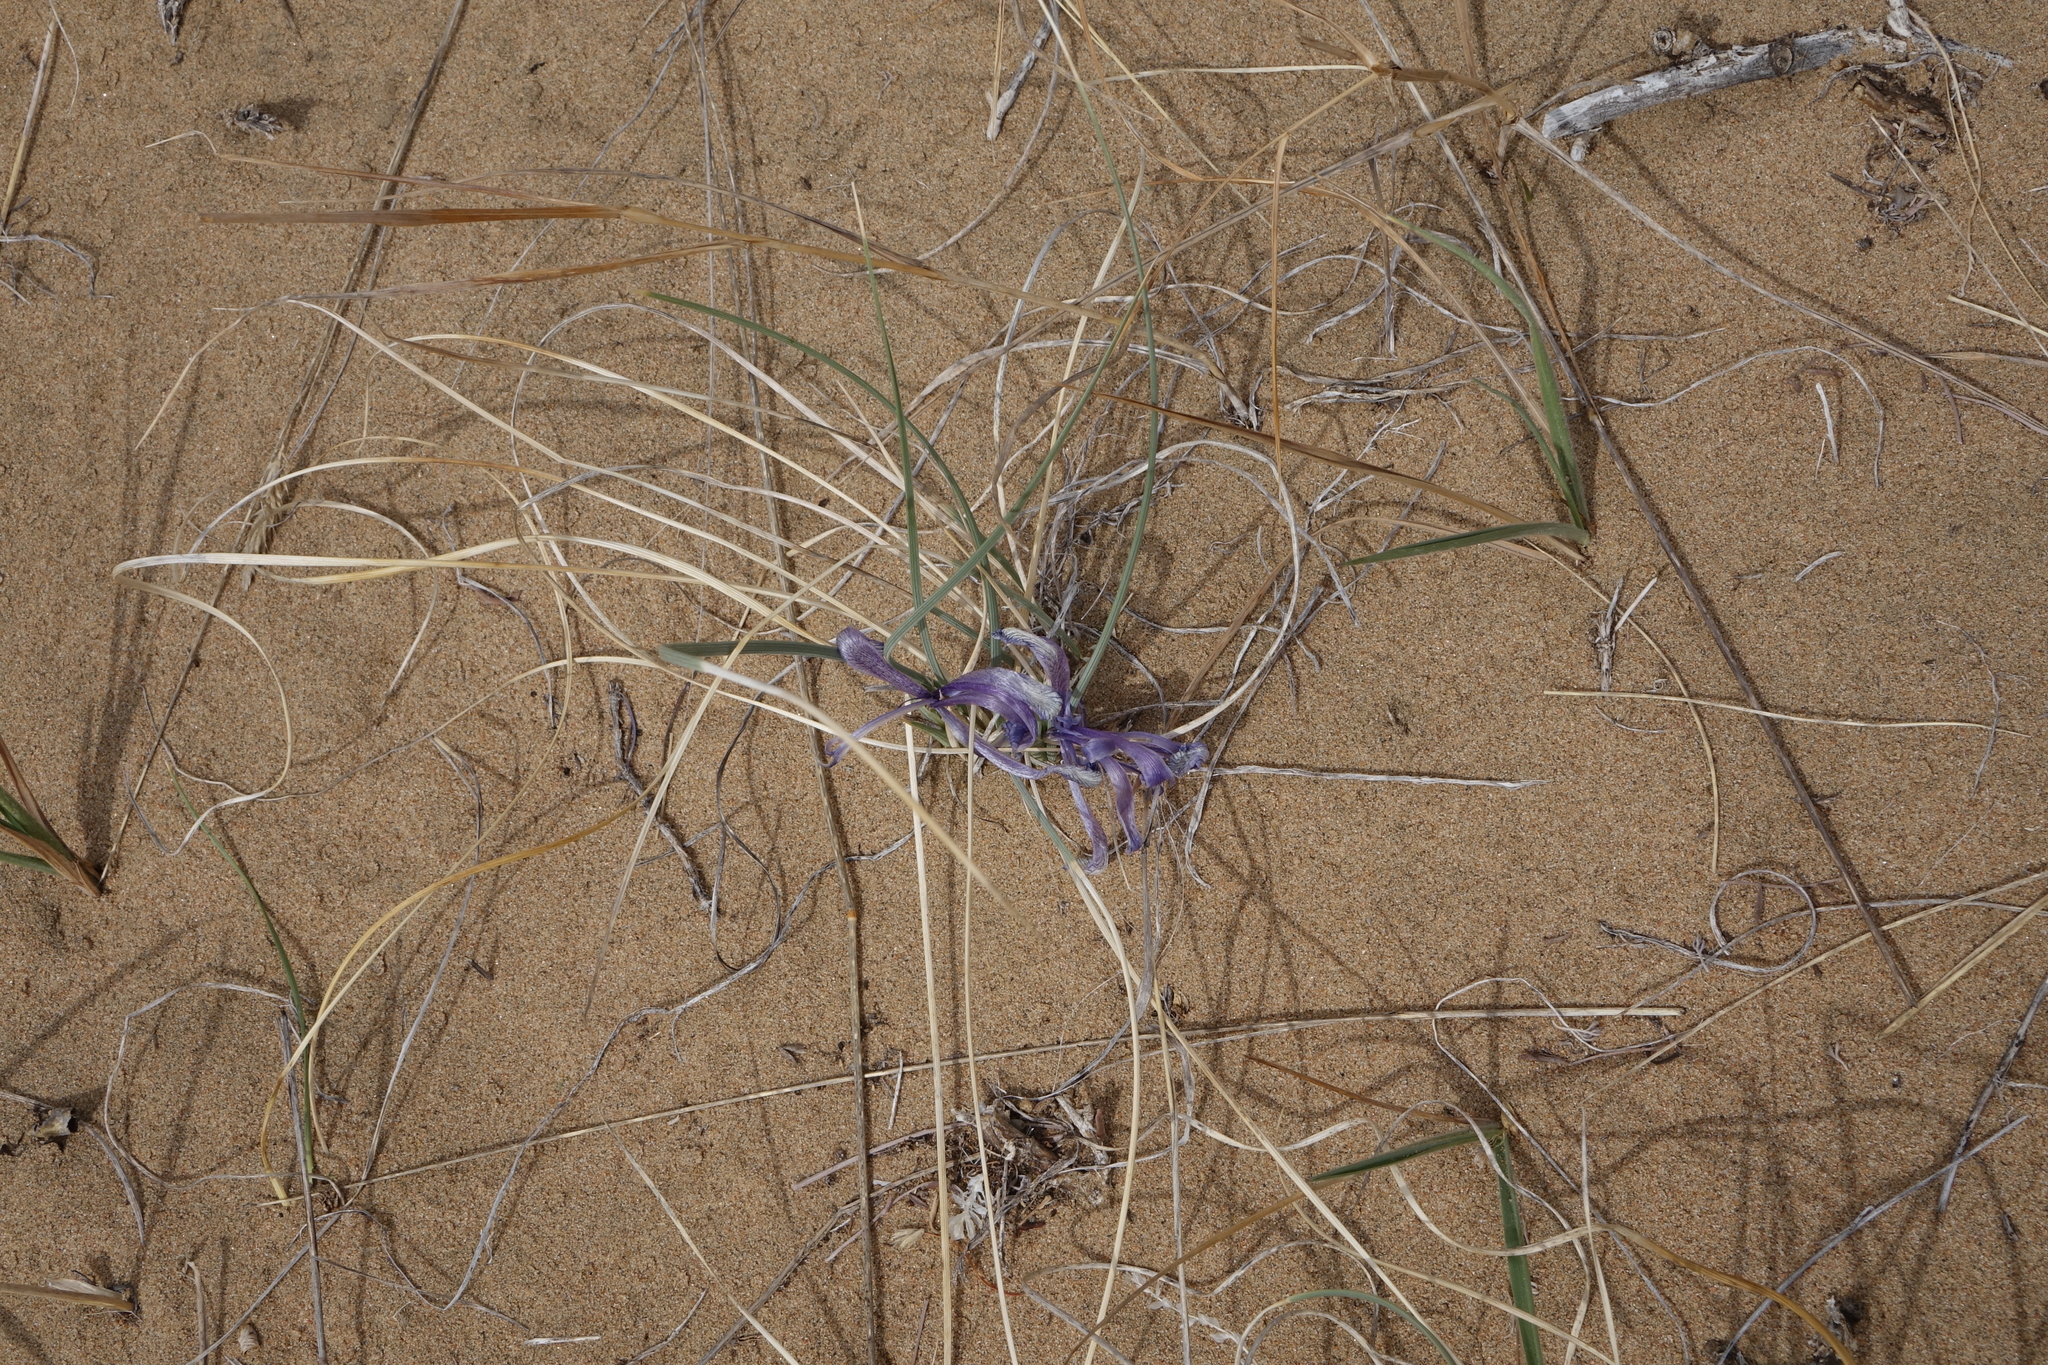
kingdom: Plantae
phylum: Tracheophyta
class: Liliopsida
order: Asparagales
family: Iridaceae
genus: Iris
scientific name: Iris tenuifolia
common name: Slender-leaf iris
